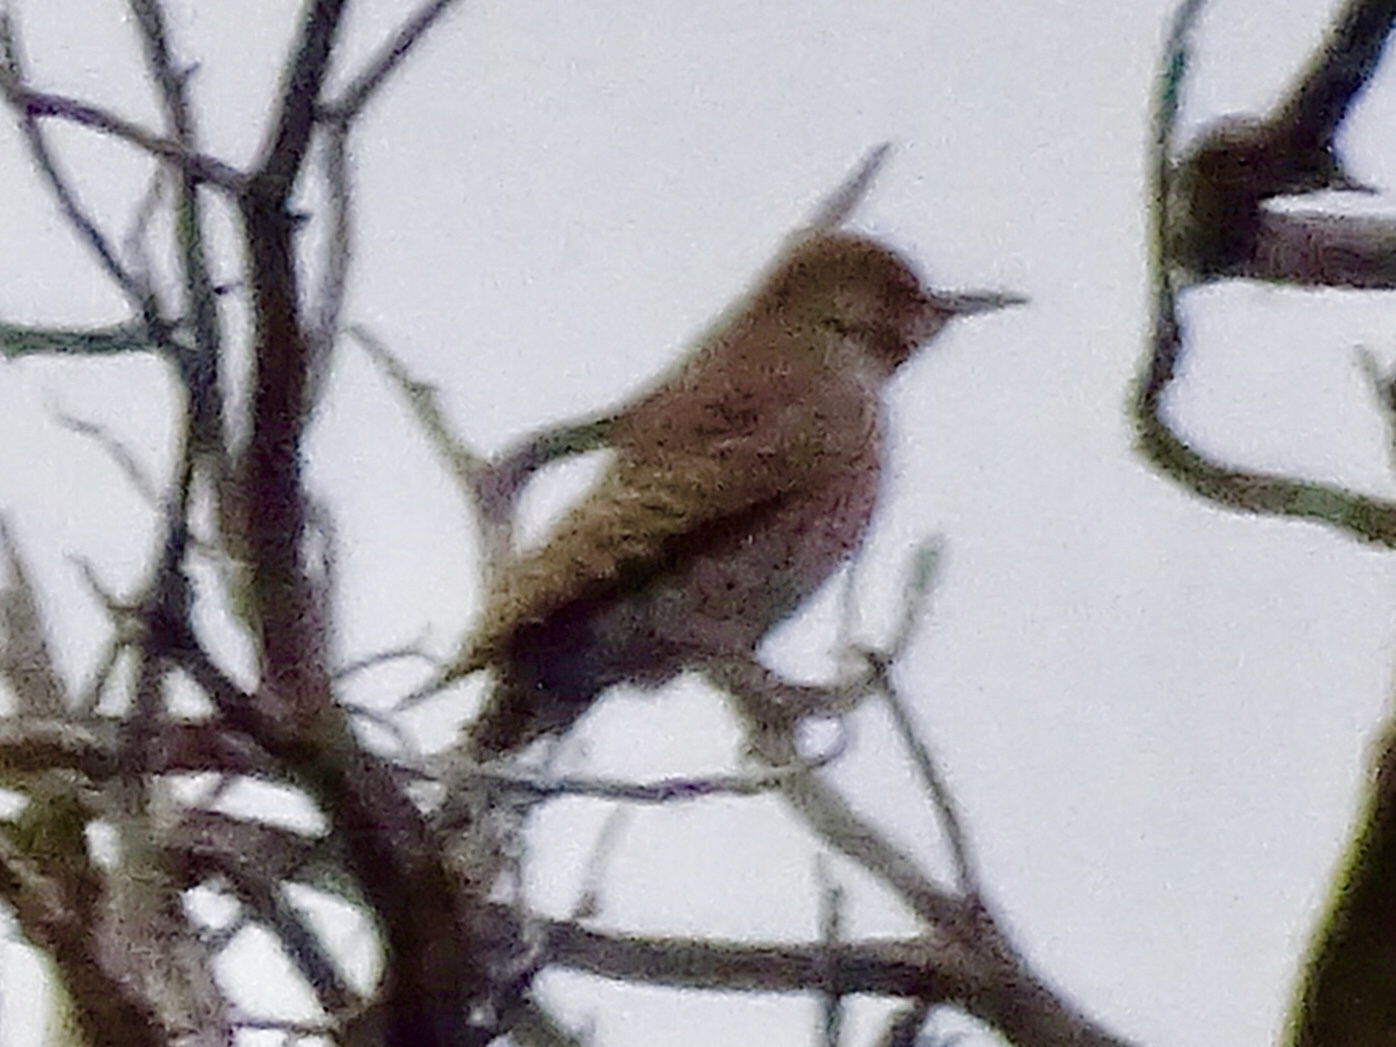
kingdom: Animalia
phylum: Chordata
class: Aves
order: Piciformes
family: Picidae
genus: Colaptes
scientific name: Colaptes auratus
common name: Northern flicker
